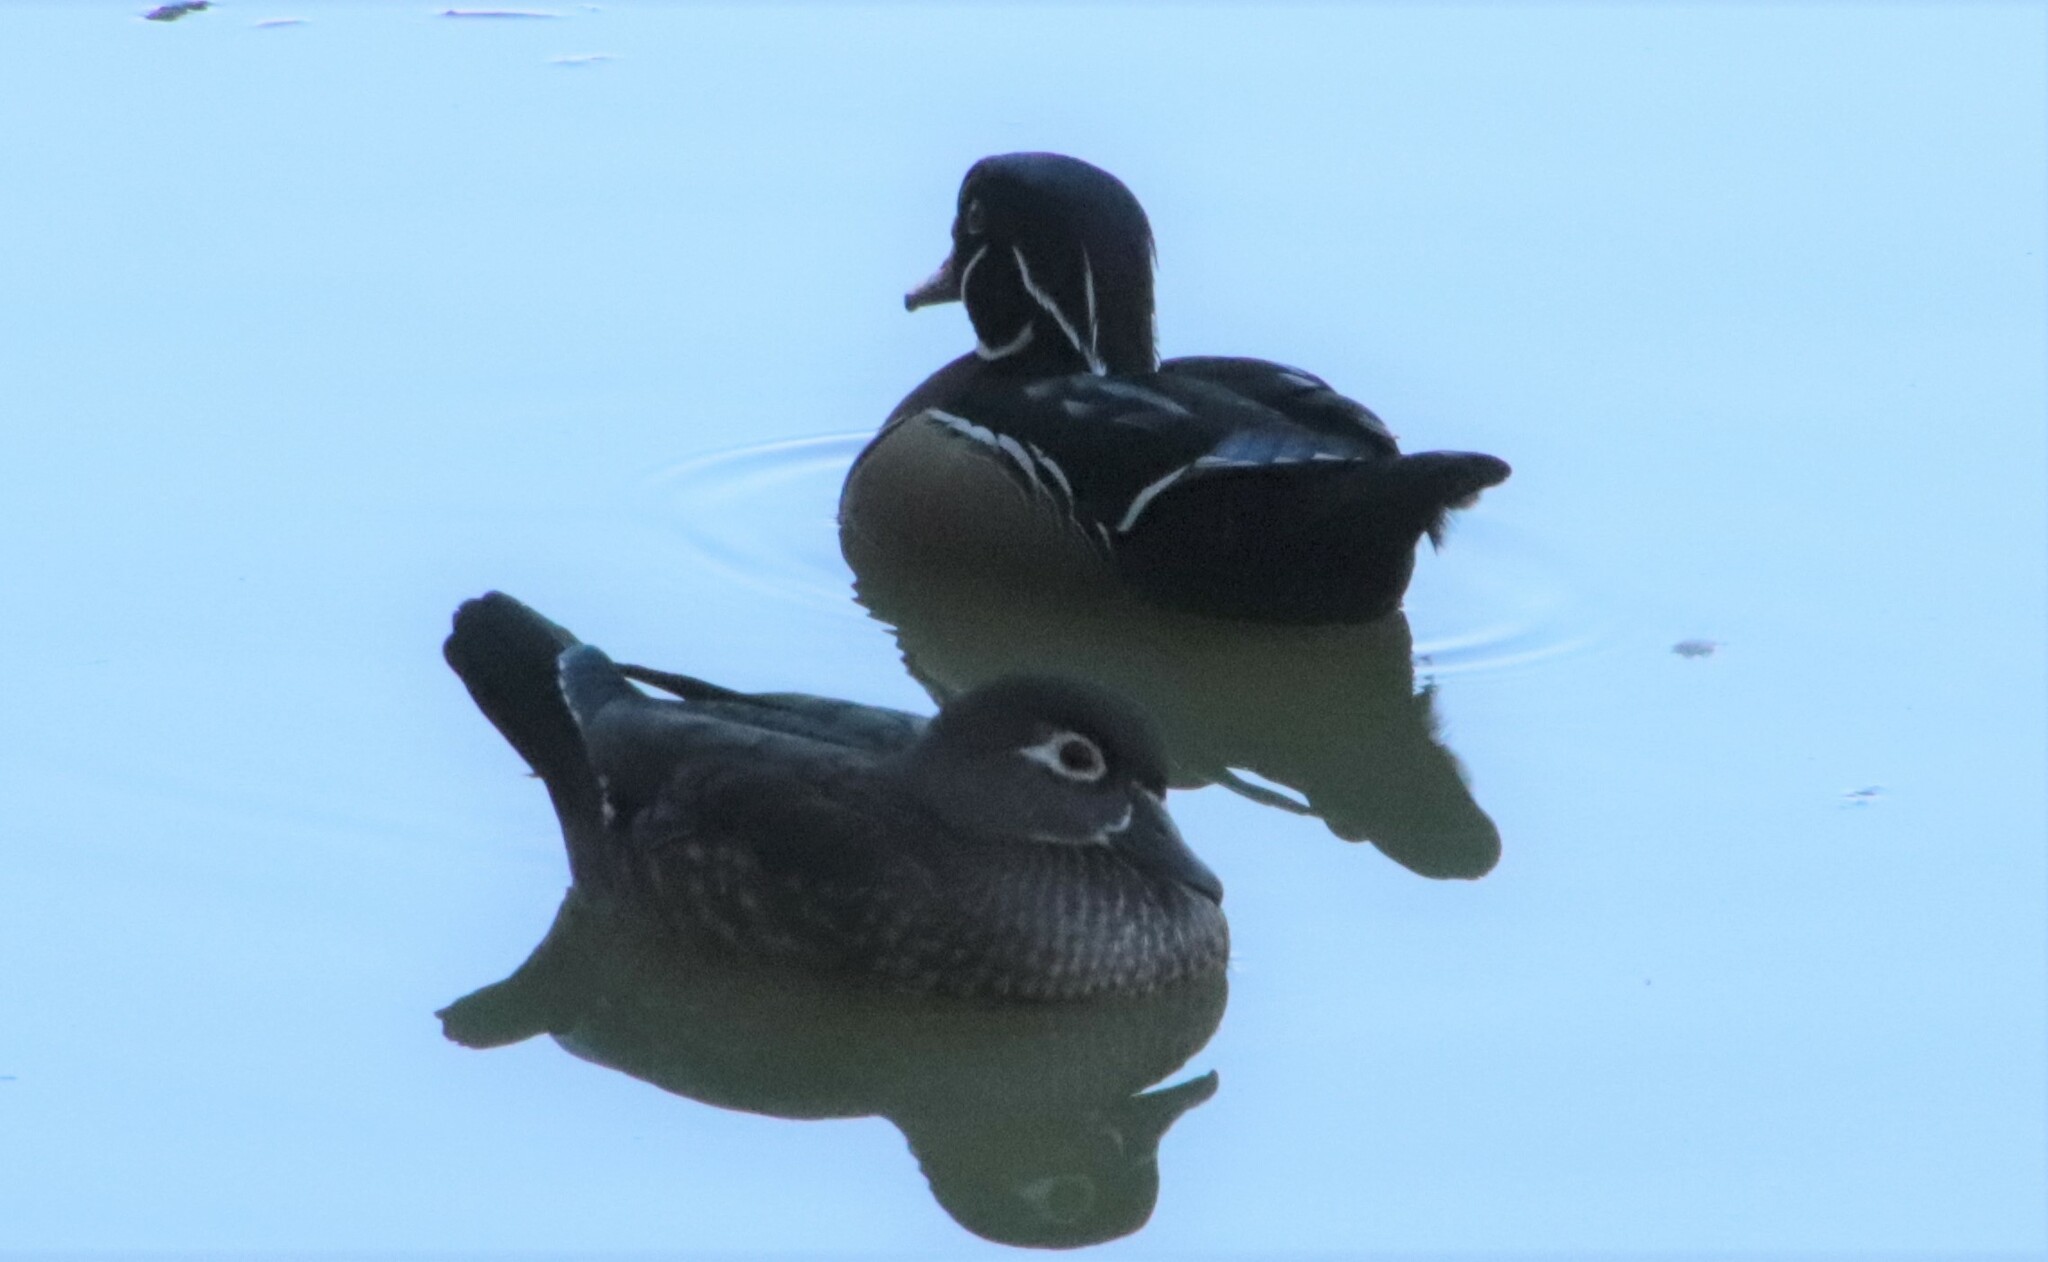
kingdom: Animalia
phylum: Chordata
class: Aves
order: Anseriformes
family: Anatidae
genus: Aix
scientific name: Aix sponsa
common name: Wood duck
